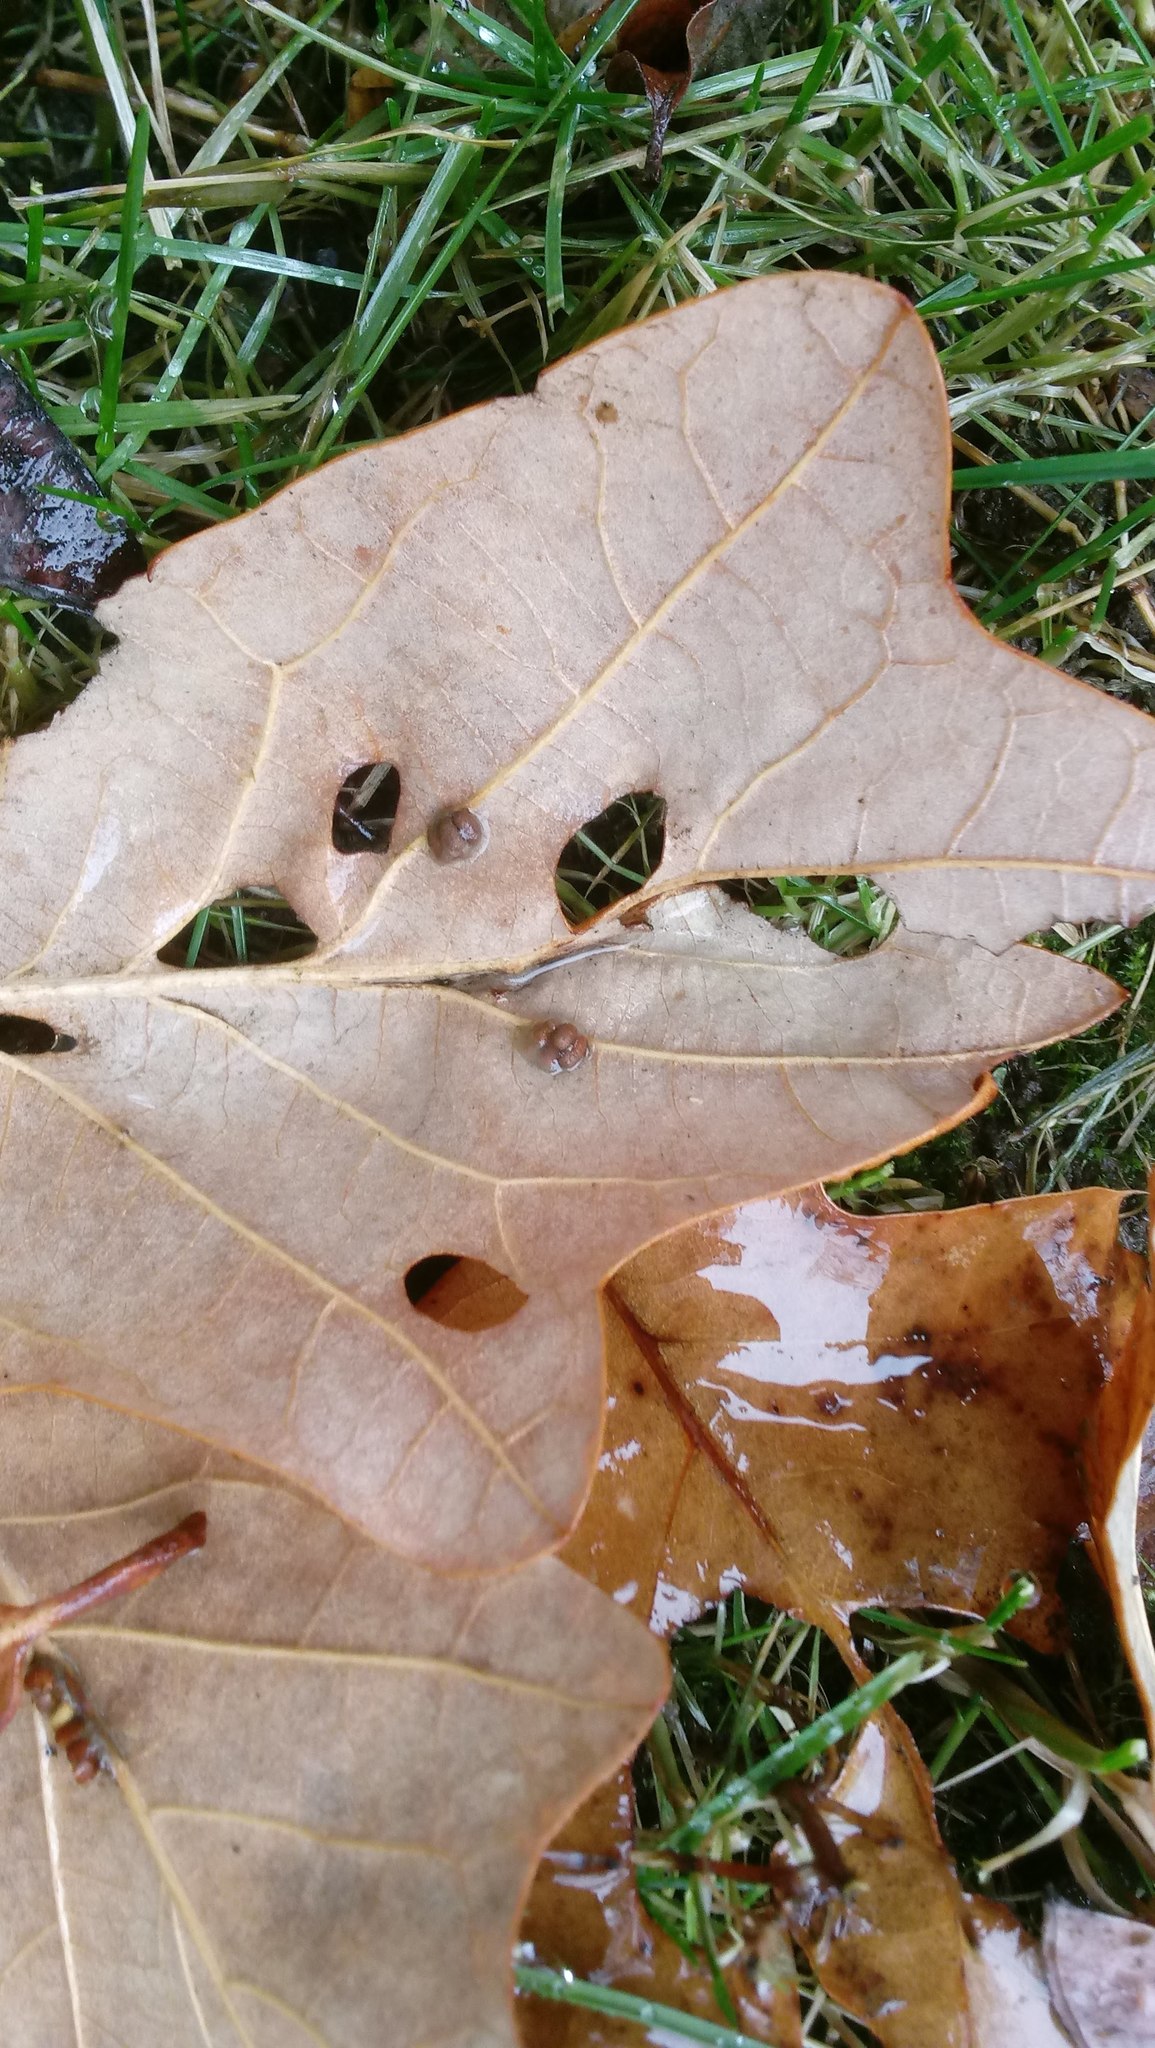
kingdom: Animalia
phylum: Arthropoda
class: Insecta
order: Hymenoptera
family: Cynipidae
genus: Andricus
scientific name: Andricus Druon ignotum
